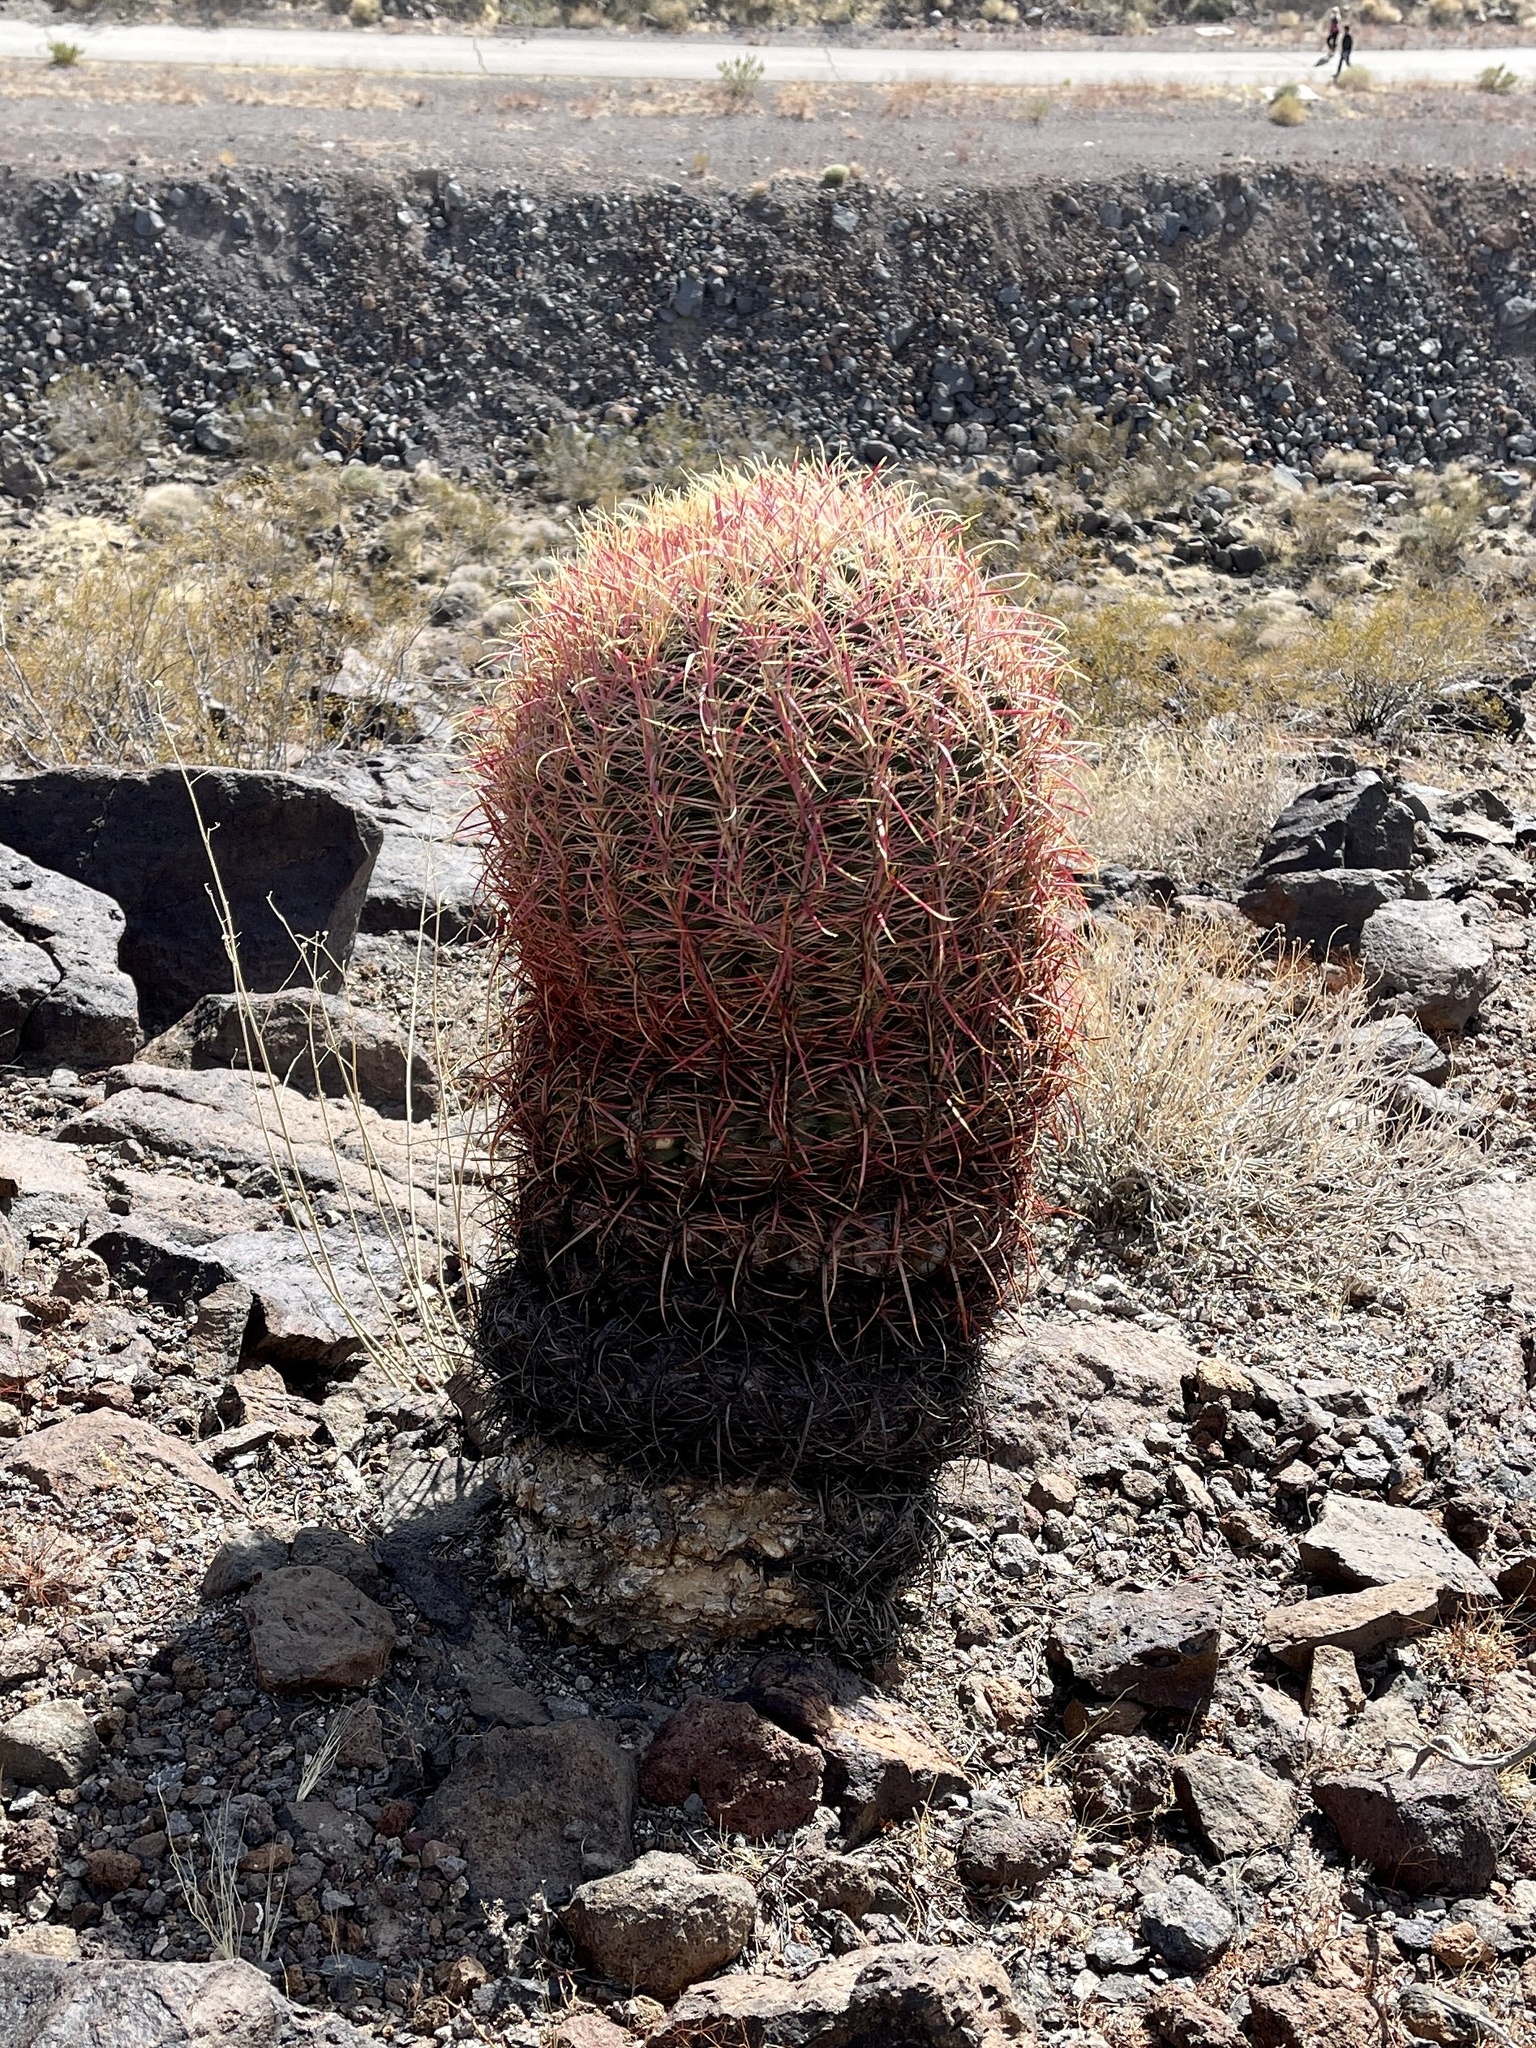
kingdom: Plantae
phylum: Tracheophyta
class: Magnoliopsida
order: Caryophyllales
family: Cactaceae
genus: Ferocactus
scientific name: Ferocactus cylindraceus
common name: California barrel cactus
